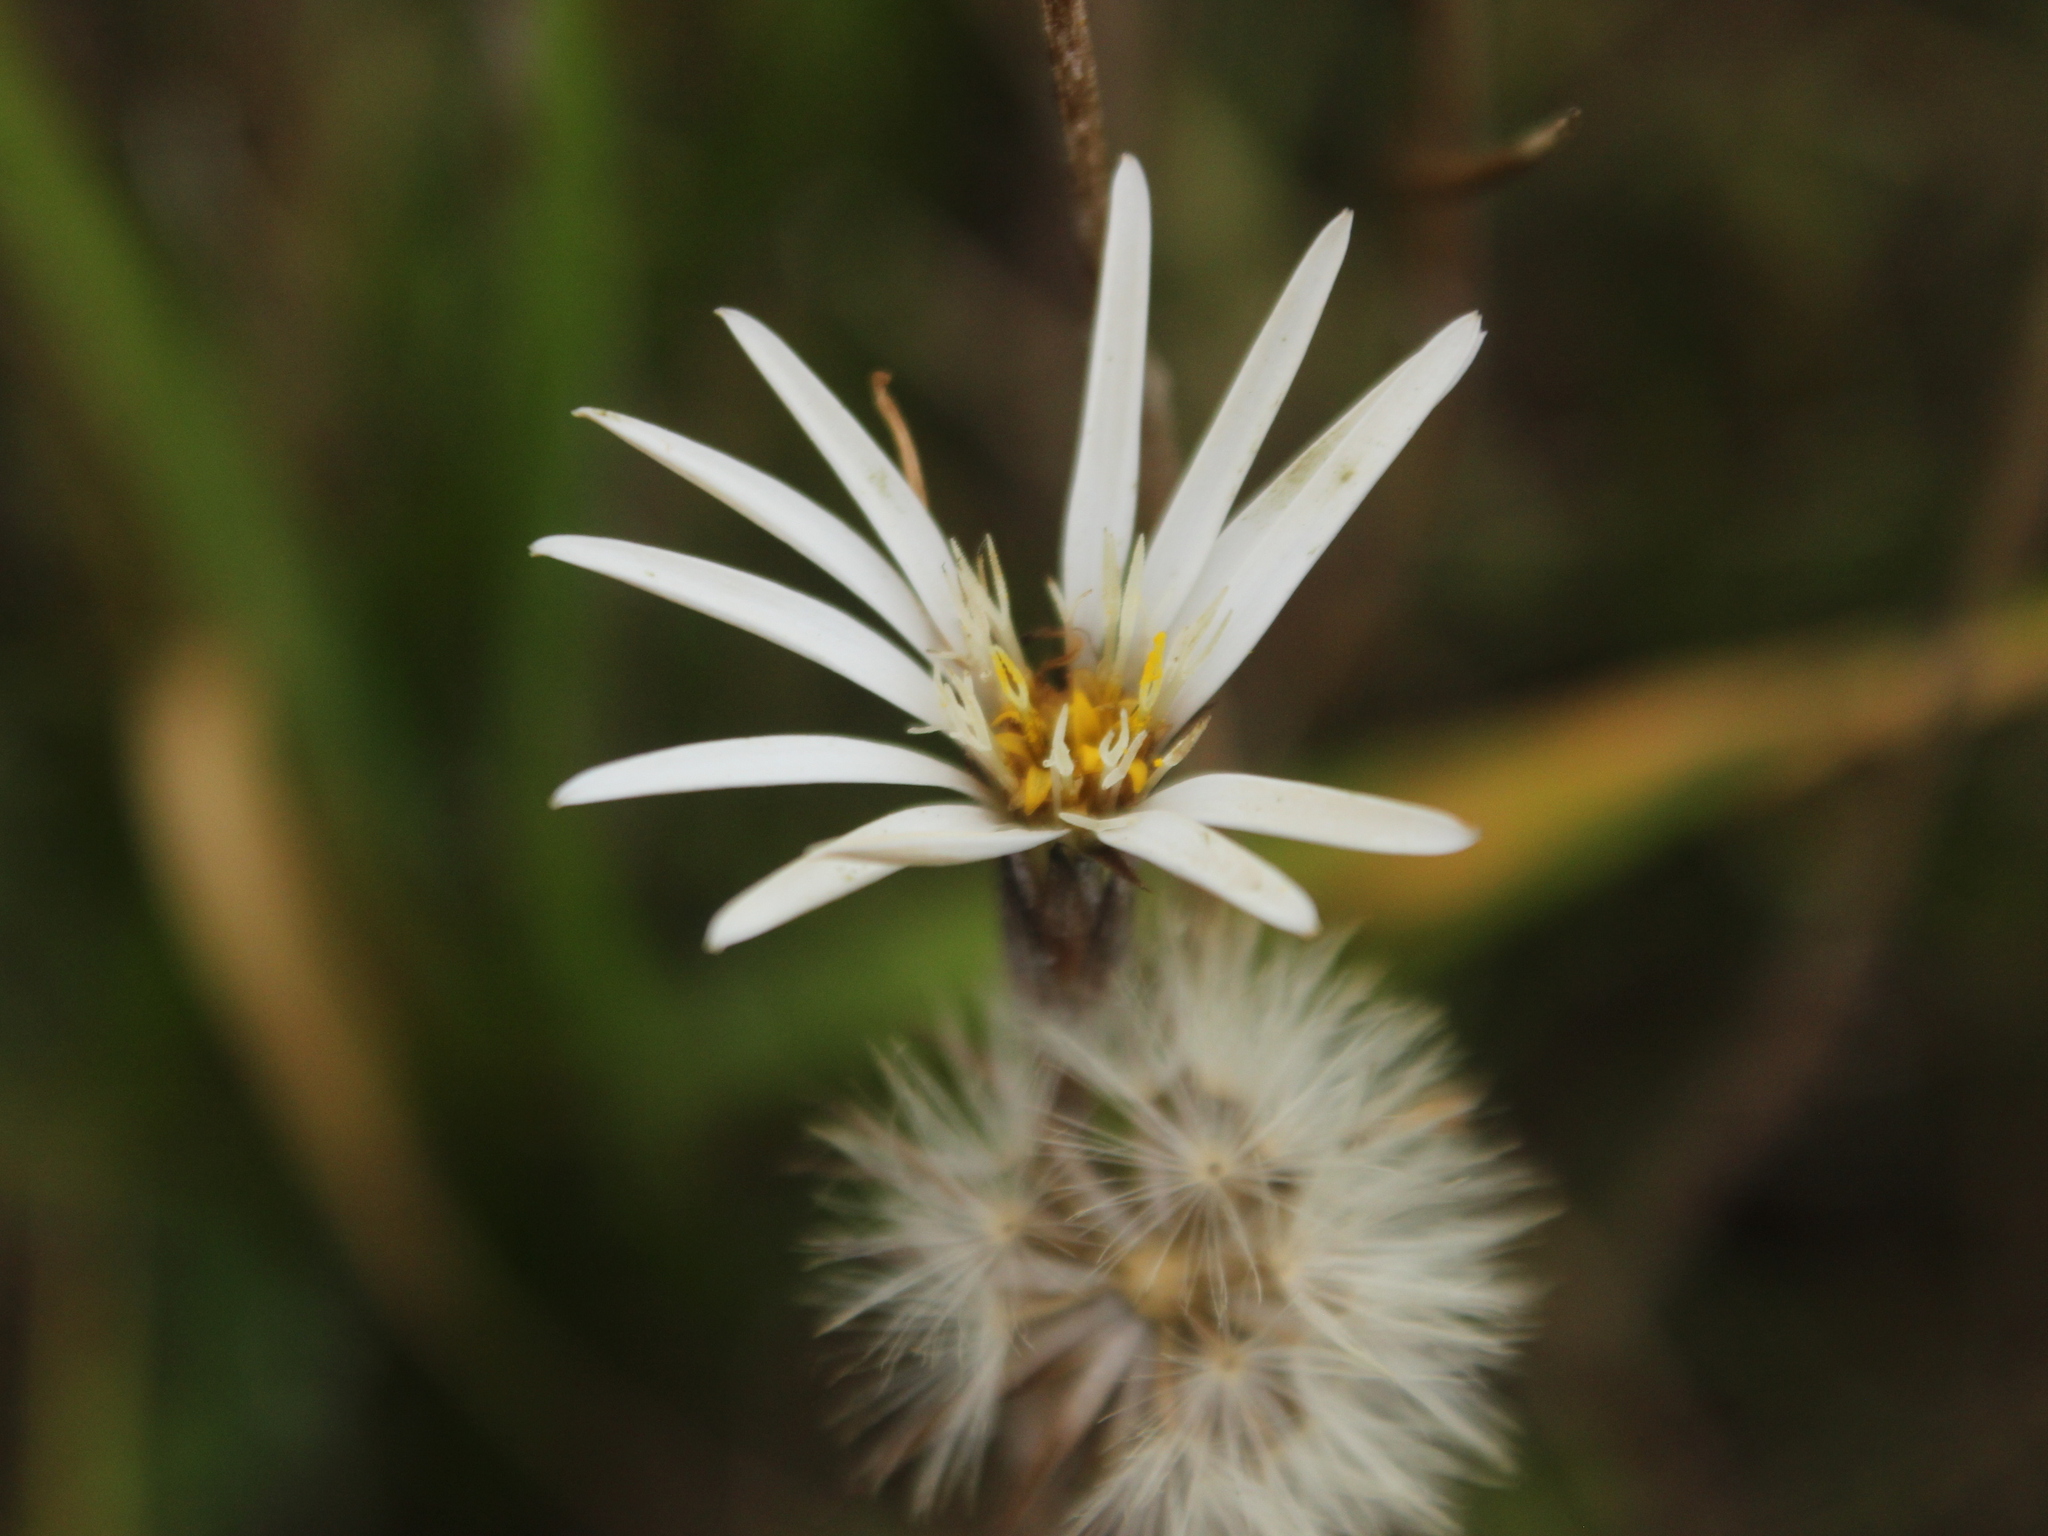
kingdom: Plantae
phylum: Tracheophyta
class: Magnoliopsida
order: Asterales
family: Asteraceae
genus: Celmisia
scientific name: Celmisia gracilenta
